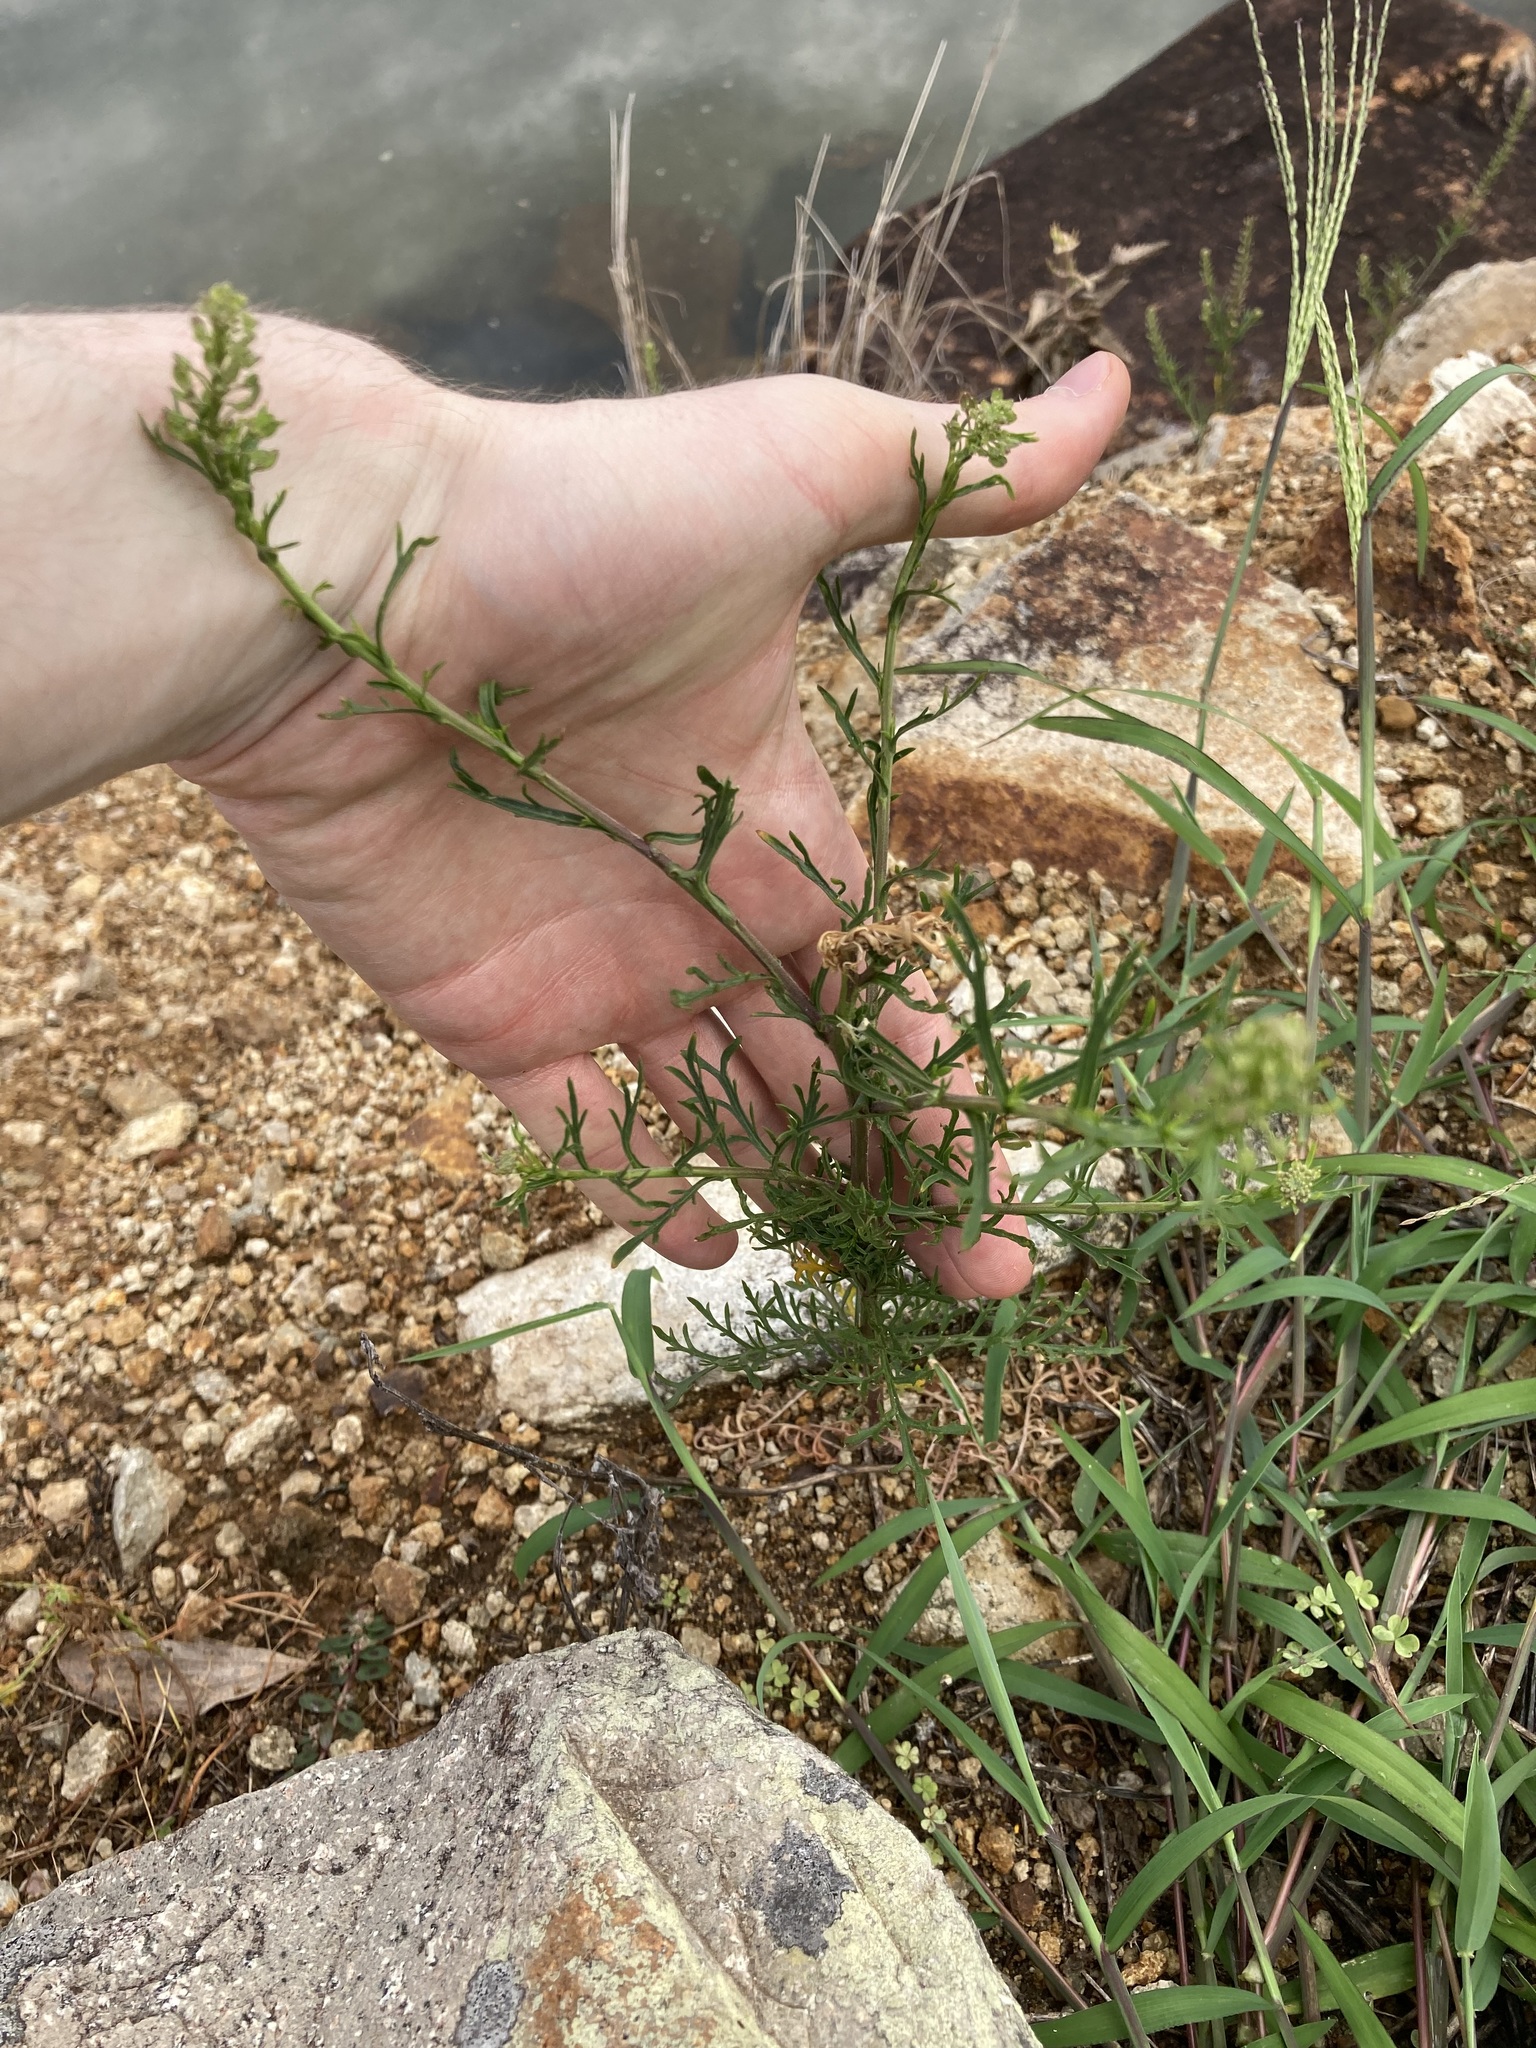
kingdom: Plantae
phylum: Tracheophyta
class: Magnoliopsida
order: Brassicales
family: Brassicaceae
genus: Lepidium
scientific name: Lepidium bonariense
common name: Argentine pepperwort
